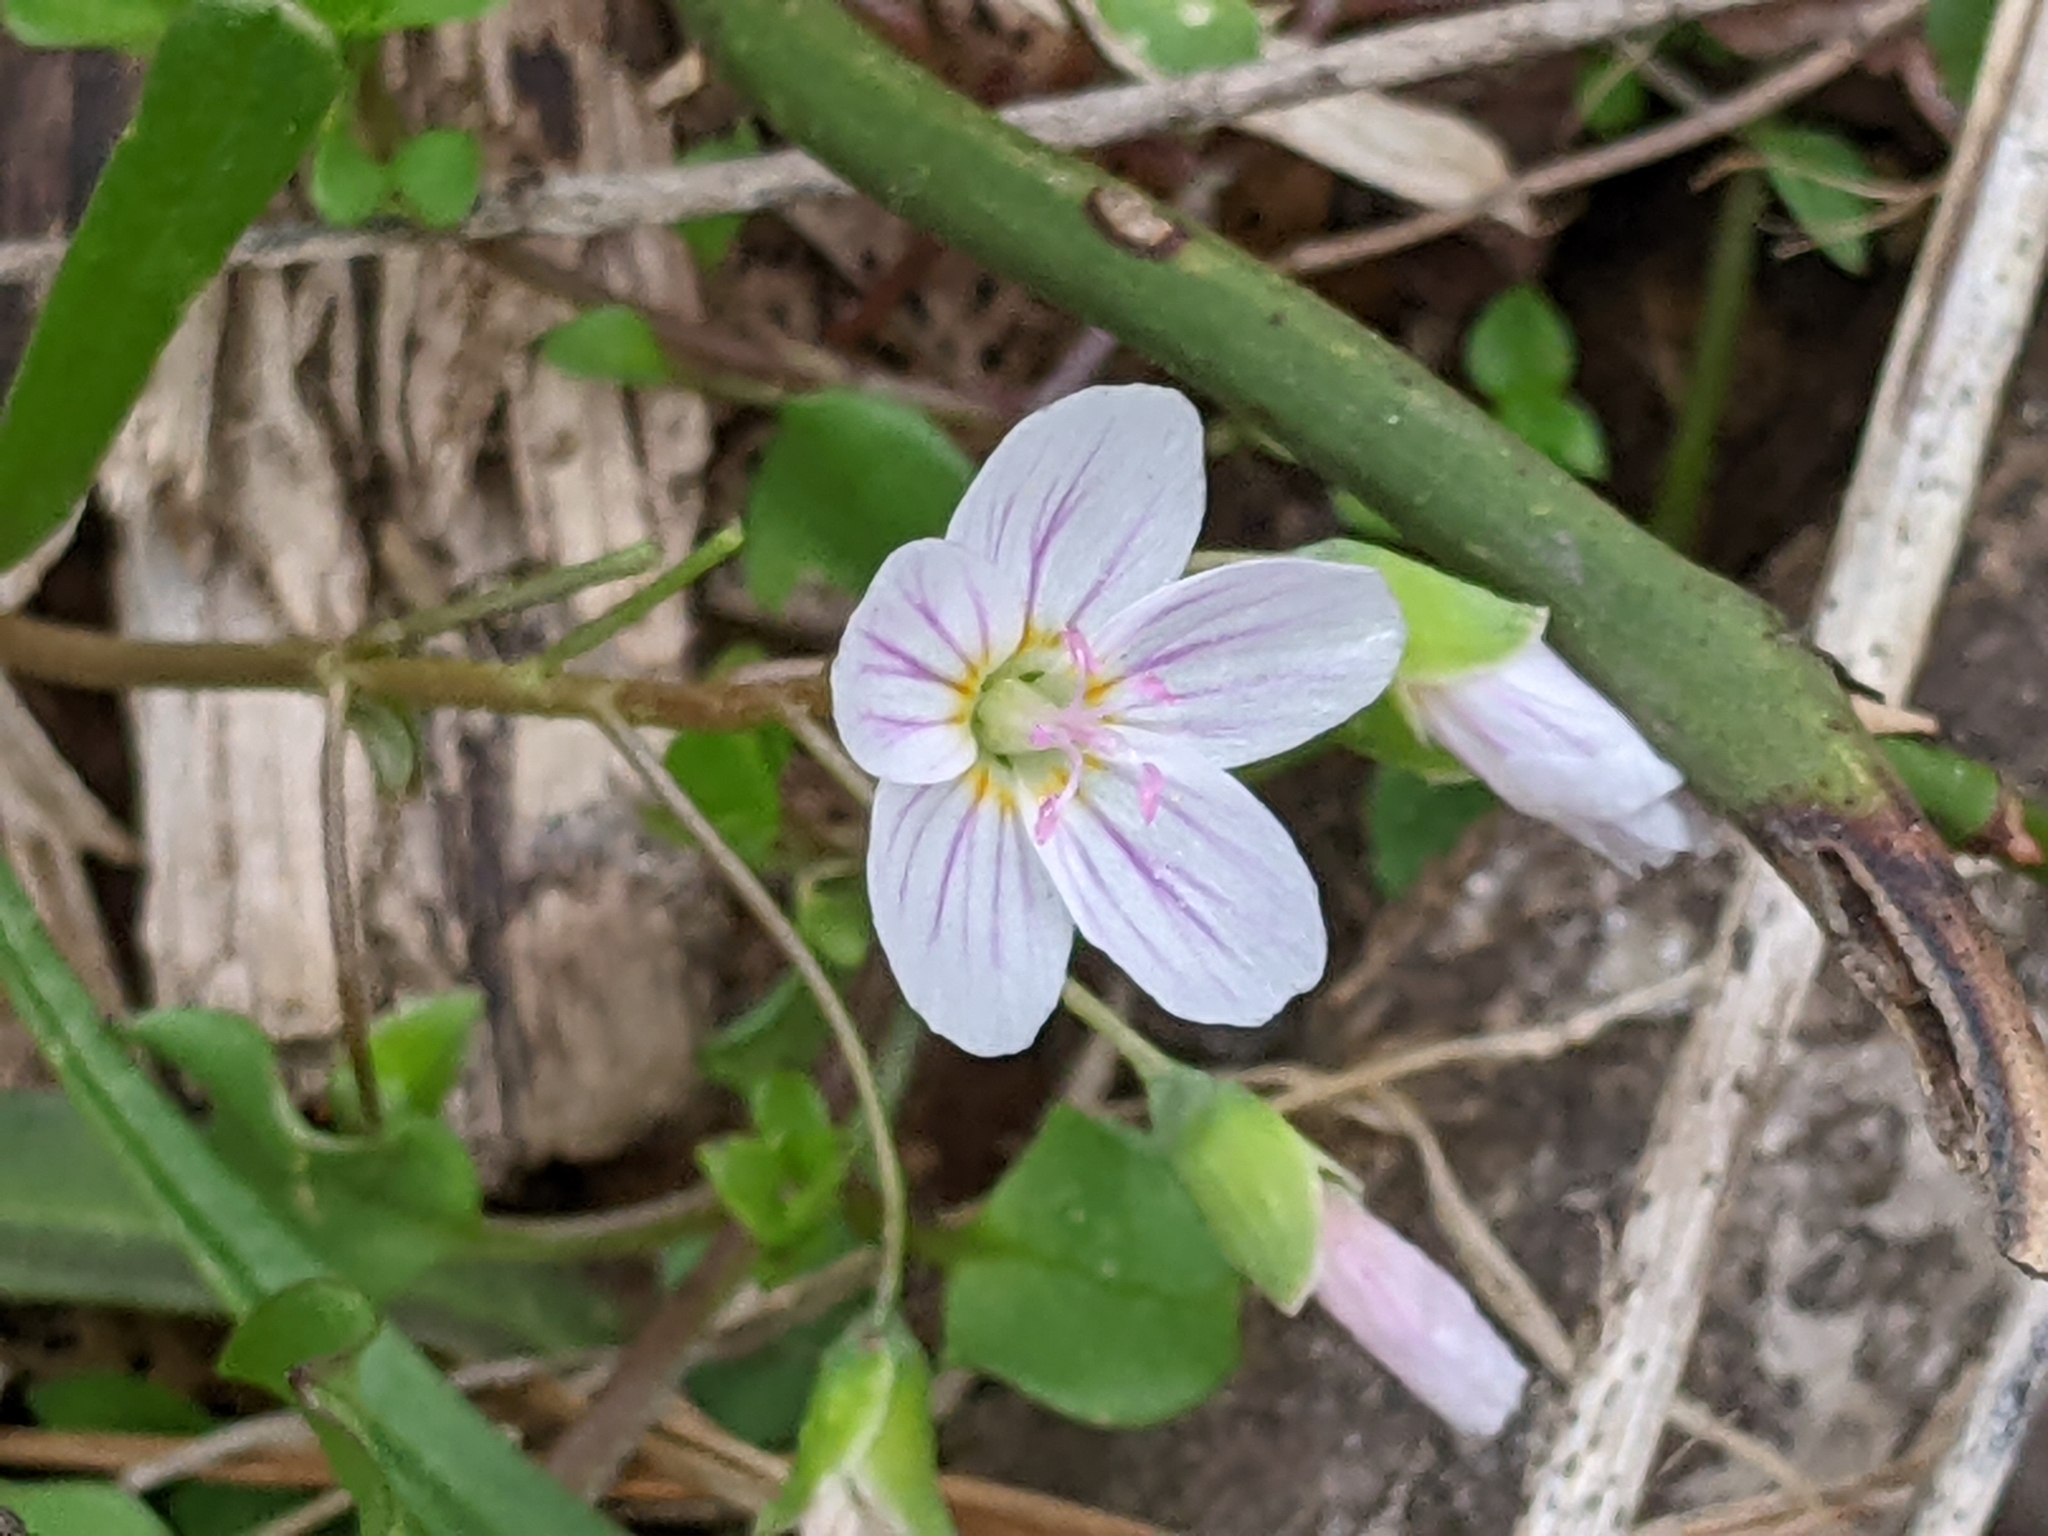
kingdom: Plantae
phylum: Tracheophyta
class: Magnoliopsida
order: Caryophyllales
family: Montiaceae
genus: Claytonia
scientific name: Claytonia virginica
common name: Virginia springbeauty
